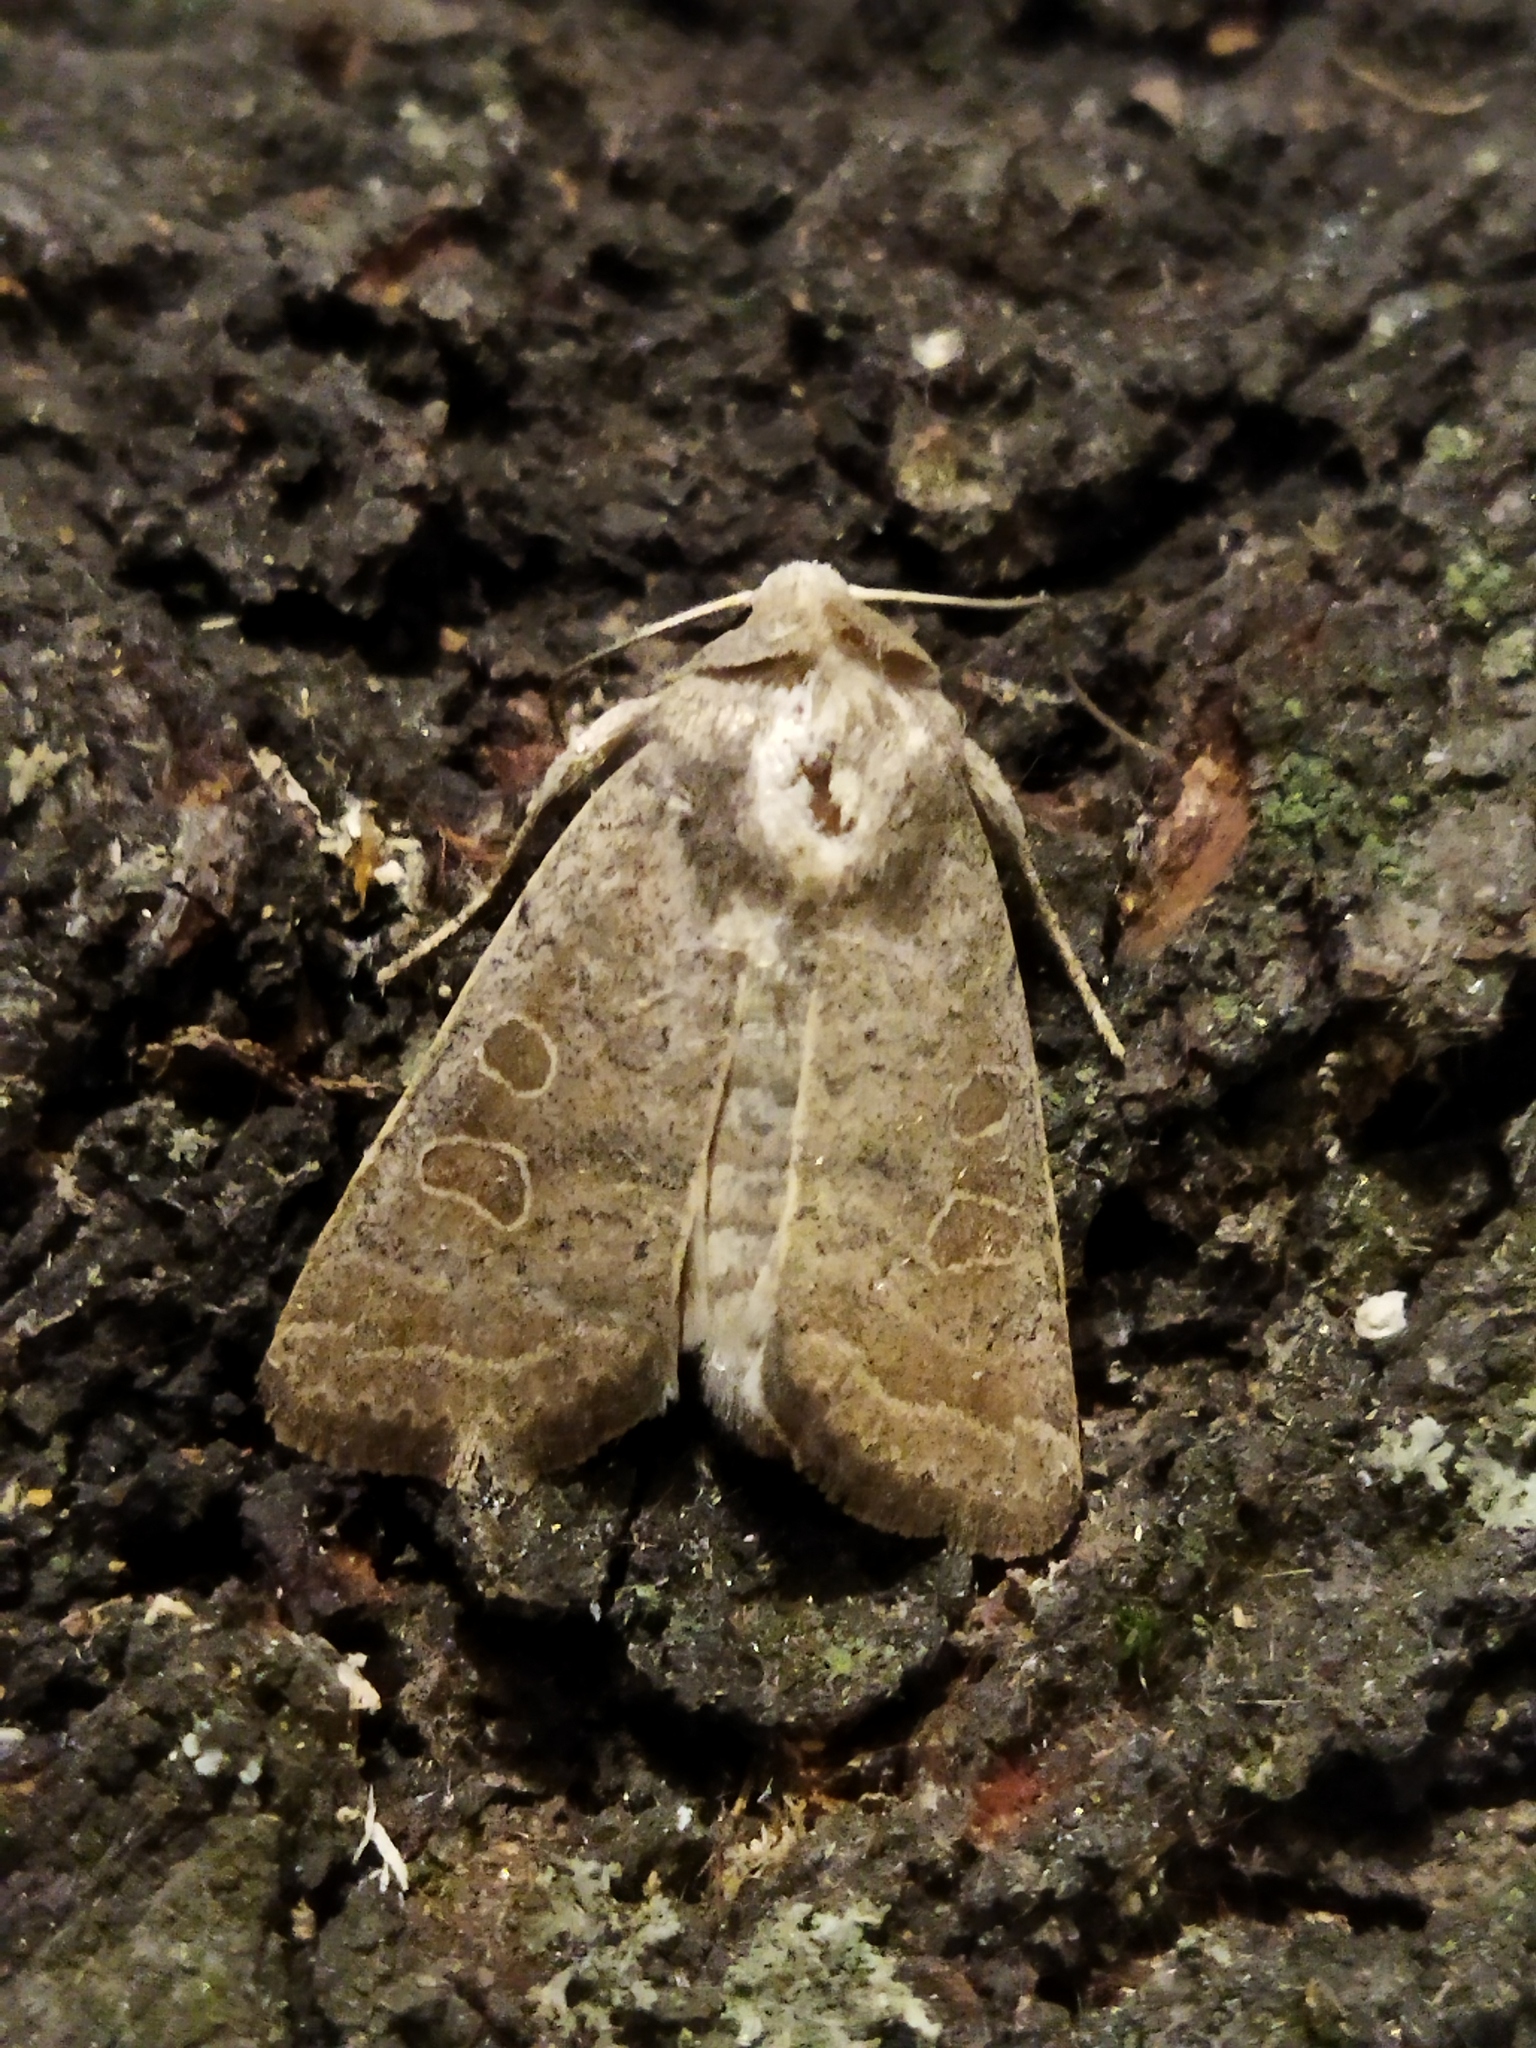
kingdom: Animalia
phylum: Arthropoda
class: Insecta
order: Lepidoptera
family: Noctuidae
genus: Hoplodrina
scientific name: Hoplodrina ambigua
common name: Vine's rustic
